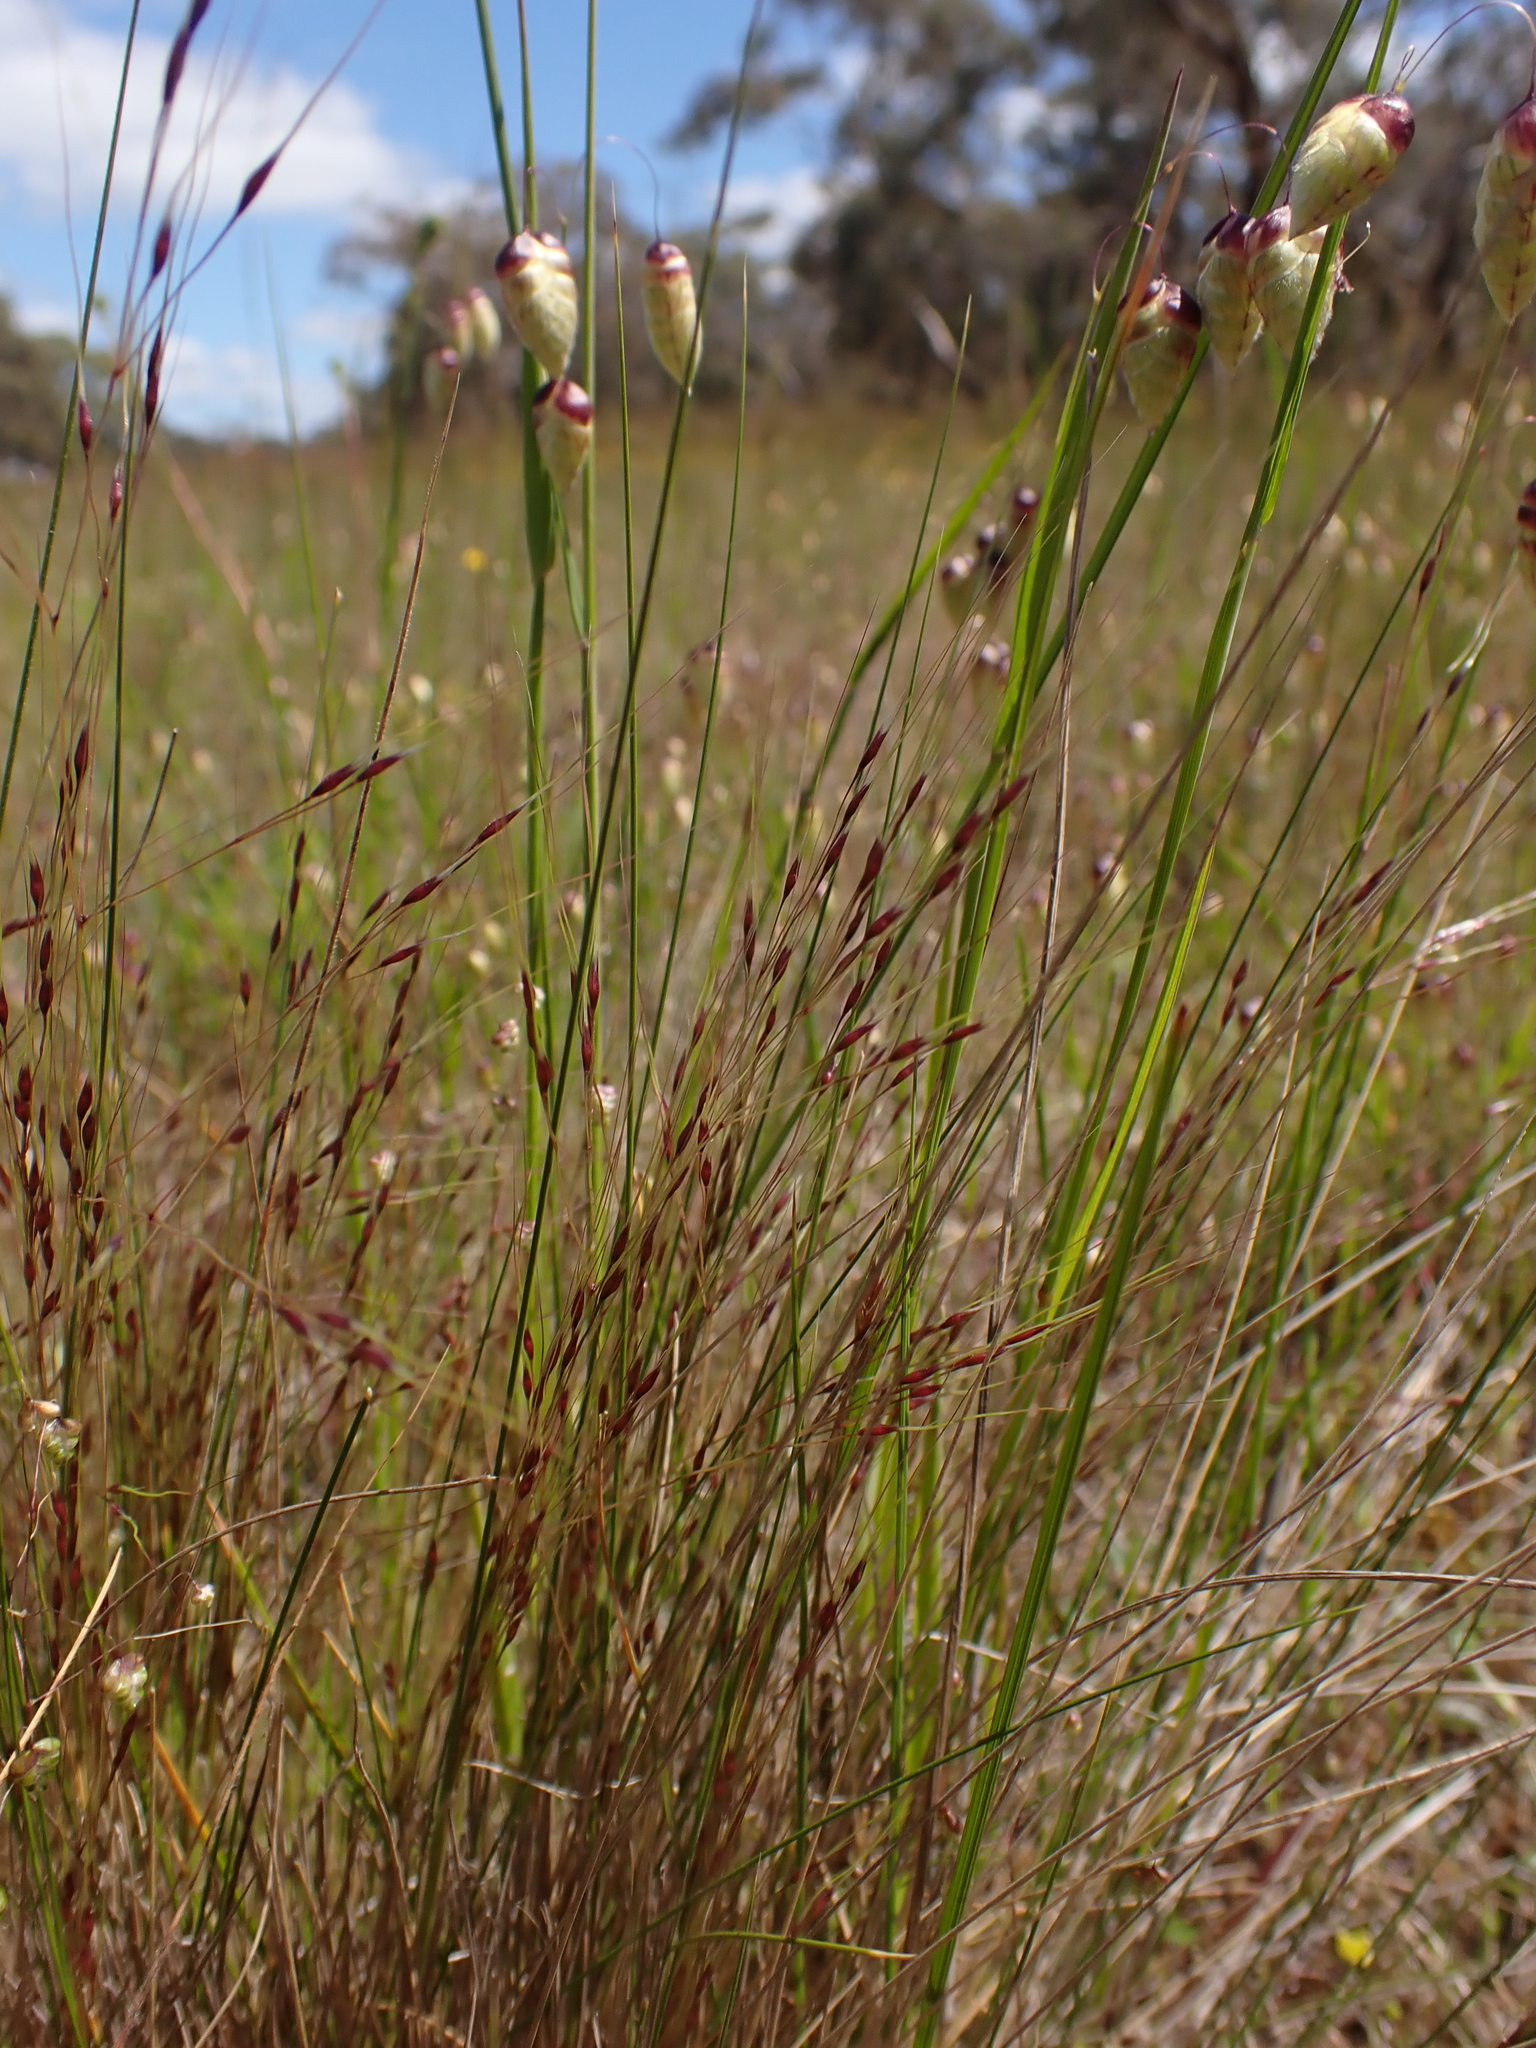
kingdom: Plantae
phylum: Tracheophyta
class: Liliopsida
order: Poales
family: Poaceae
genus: Nassella
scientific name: Nassella trichotoma
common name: Serrated tussock grass
